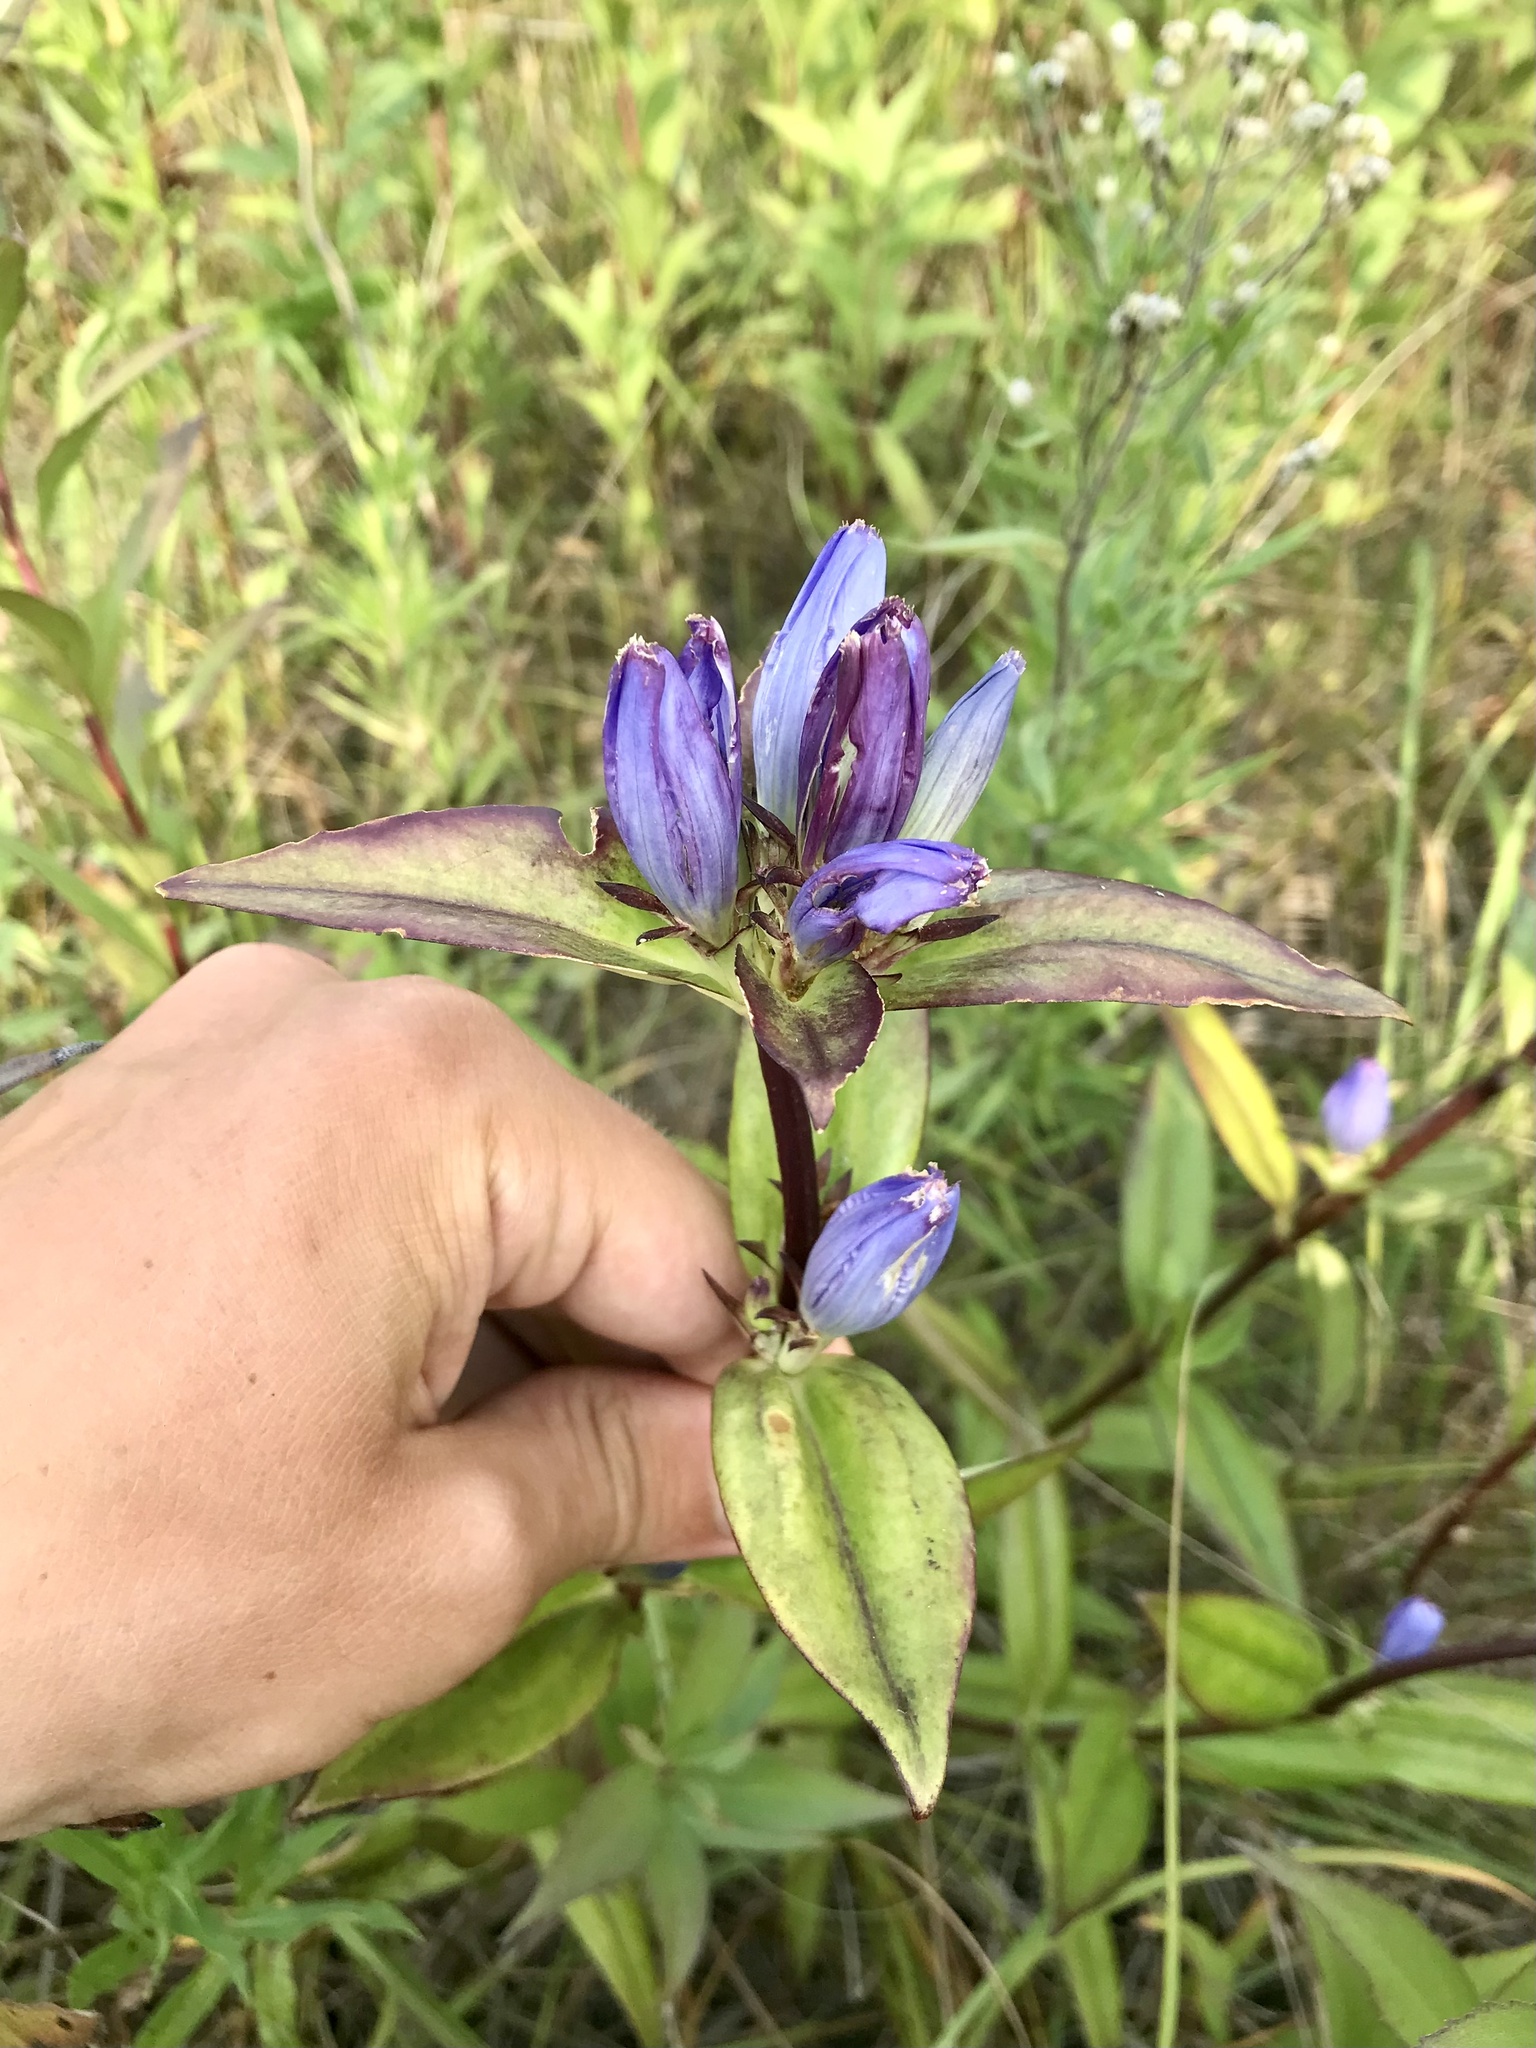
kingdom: Plantae
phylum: Tracheophyta
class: Magnoliopsida
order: Gentianales
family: Gentianaceae
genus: Gentiana
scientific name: Gentiana andrewsii
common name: Bottle gentian
